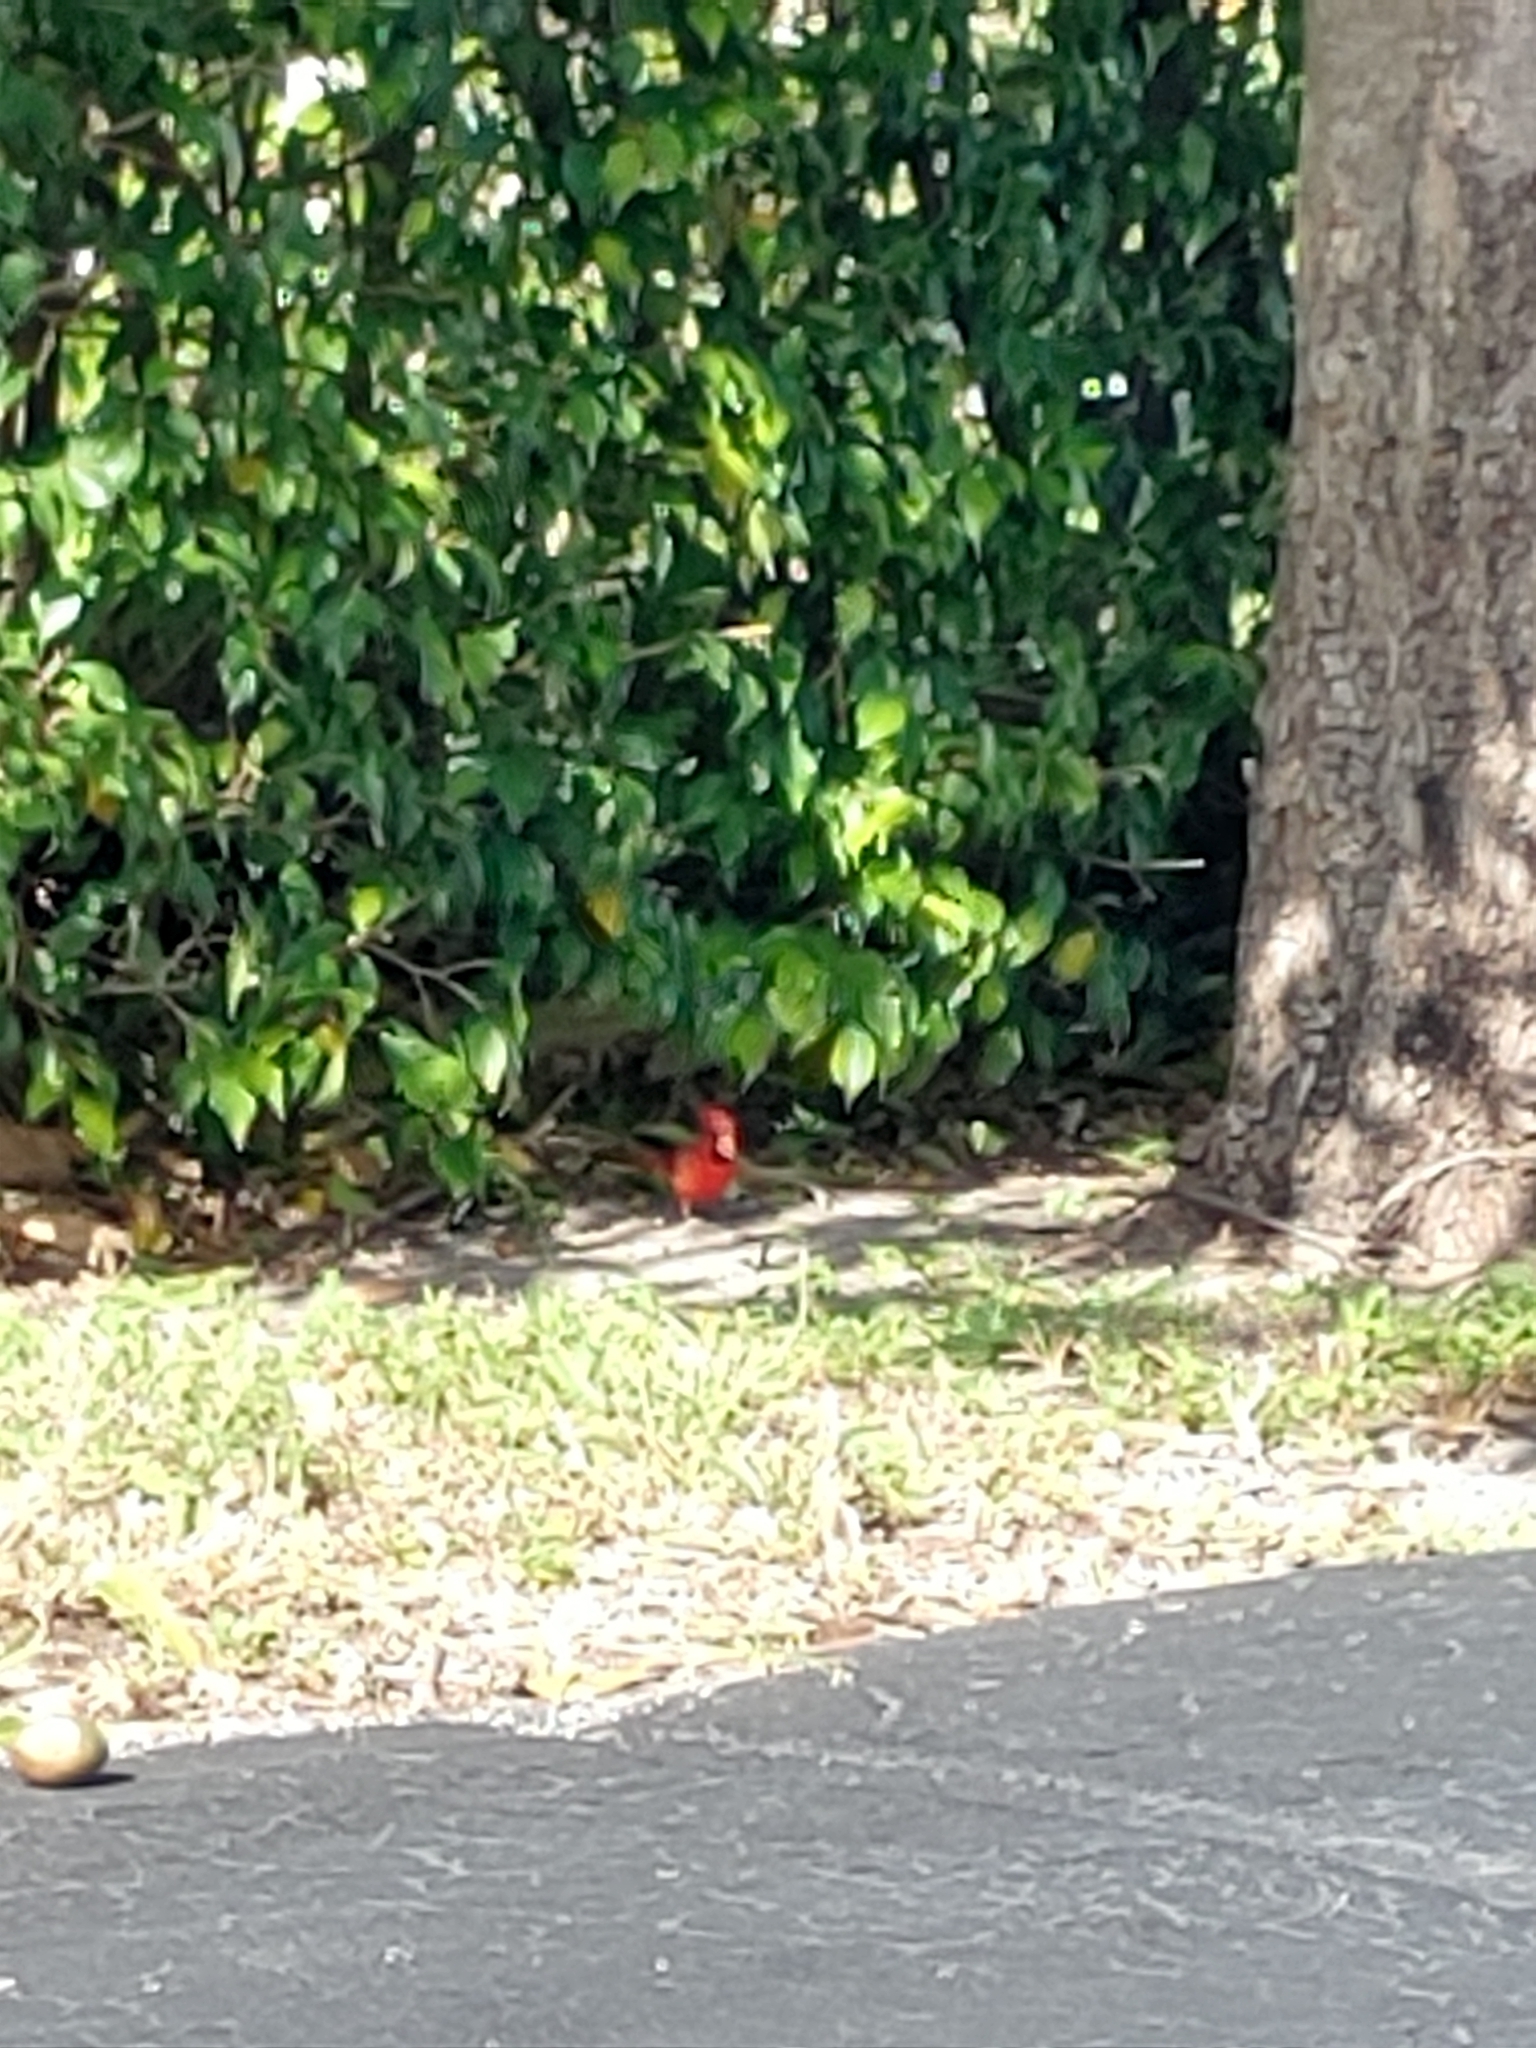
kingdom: Animalia
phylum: Chordata
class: Aves
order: Passeriformes
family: Cardinalidae
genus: Cardinalis
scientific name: Cardinalis cardinalis
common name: Northern cardinal
